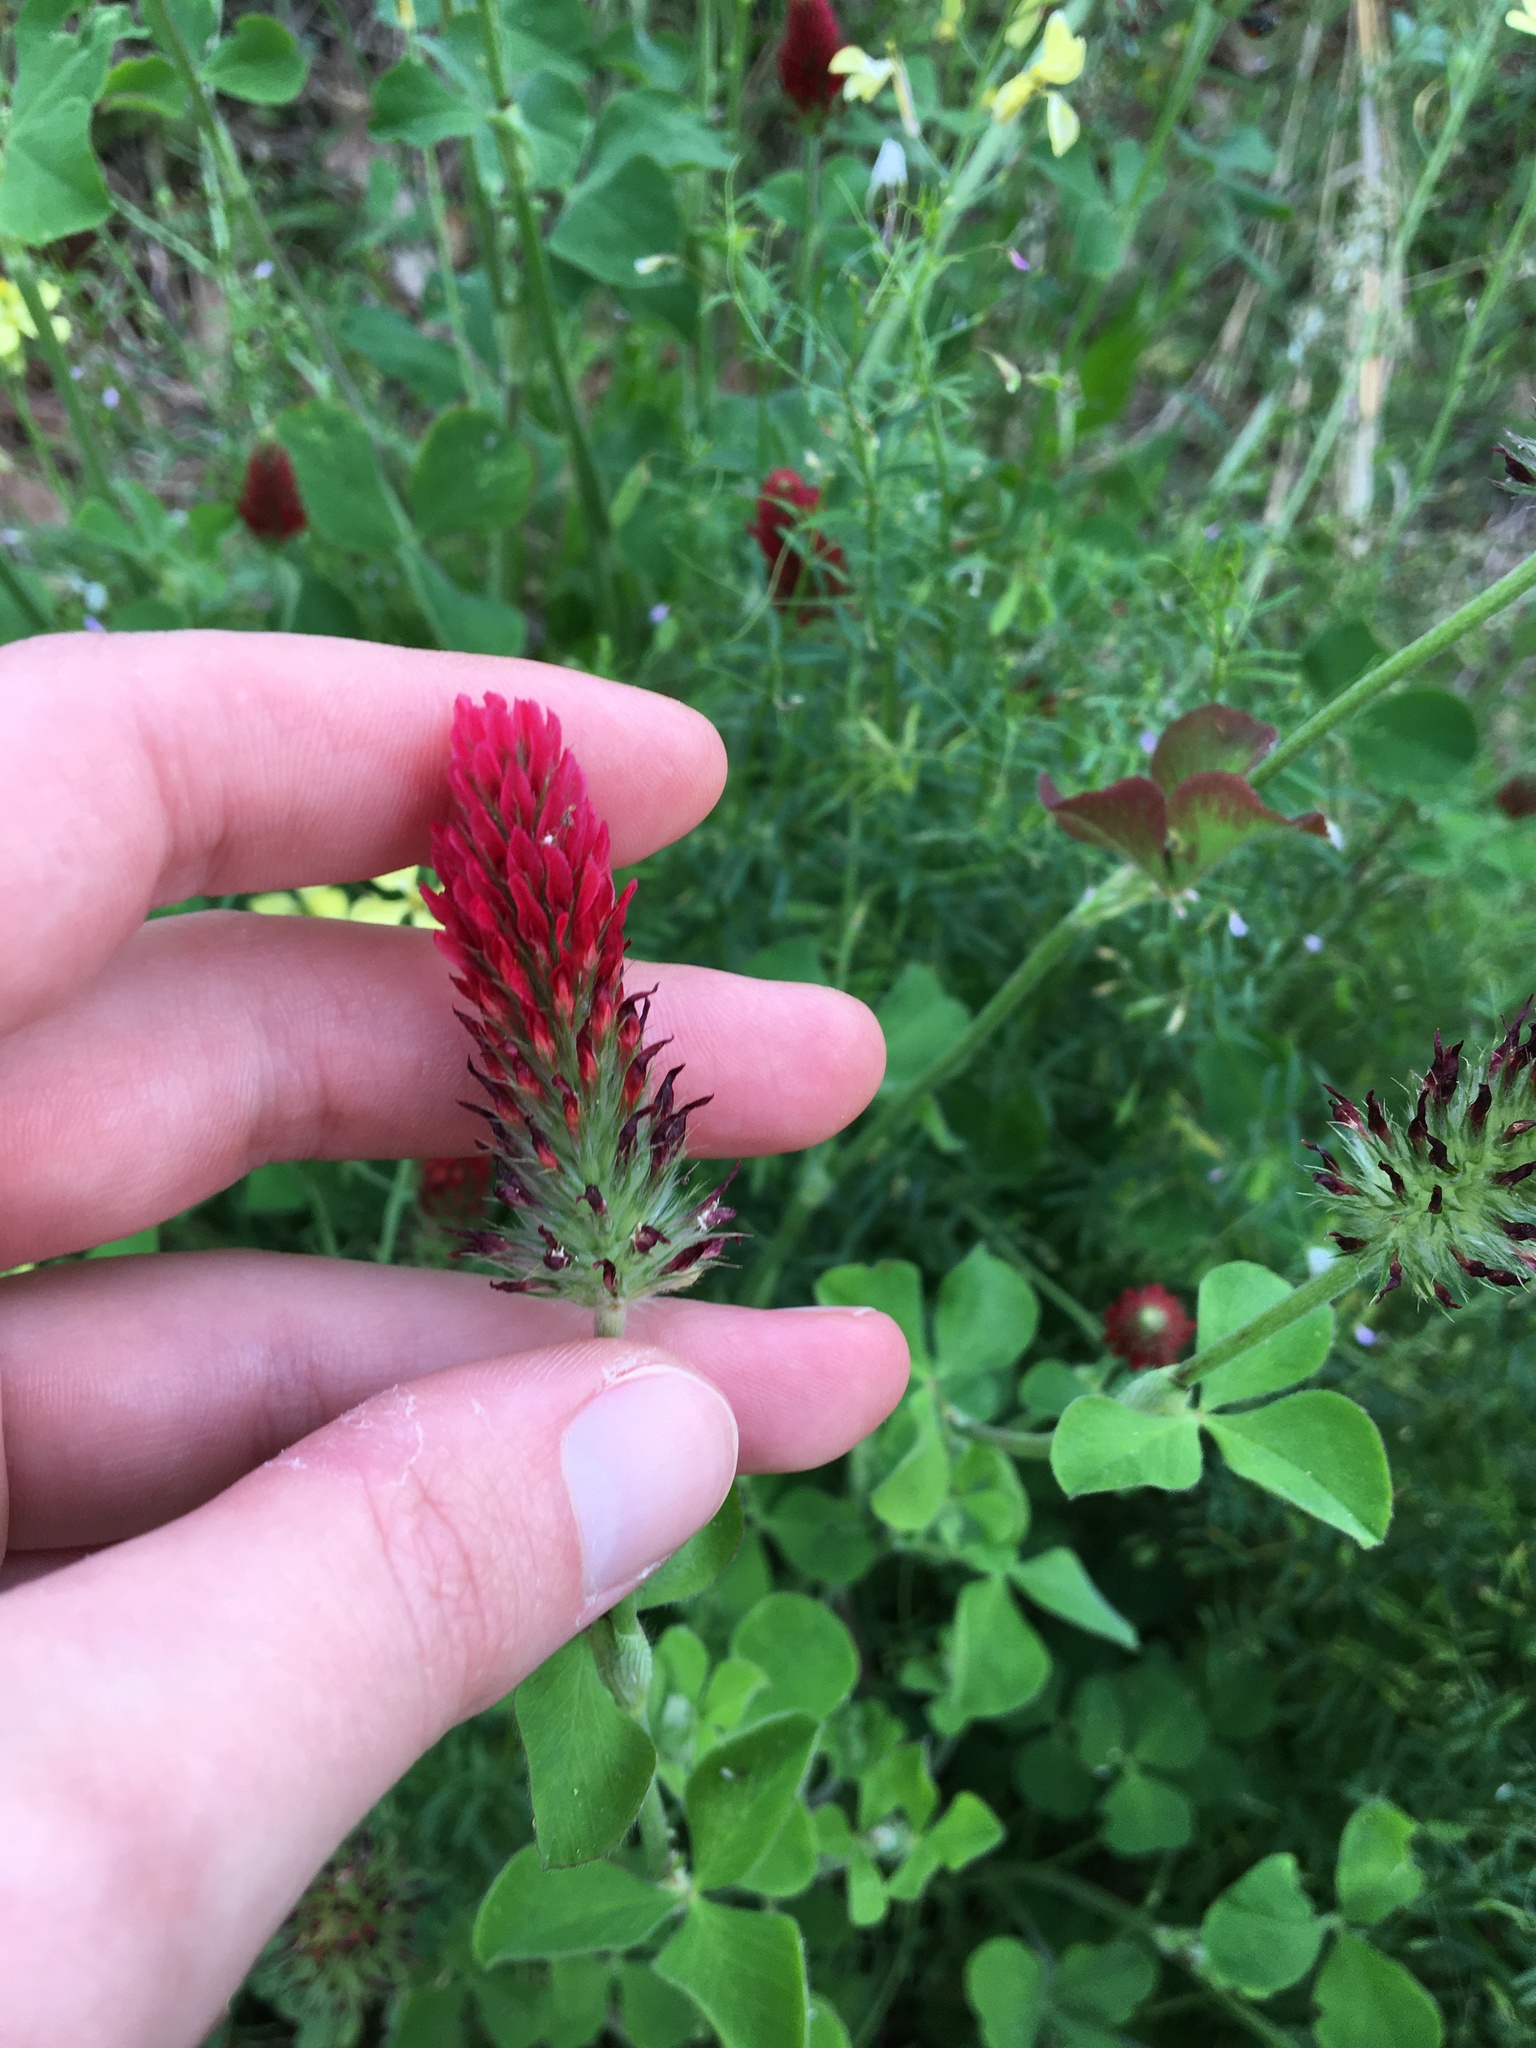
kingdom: Plantae
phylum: Tracheophyta
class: Magnoliopsida
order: Fabales
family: Fabaceae
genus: Trifolium
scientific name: Trifolium incarnatum
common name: Crimson clover
